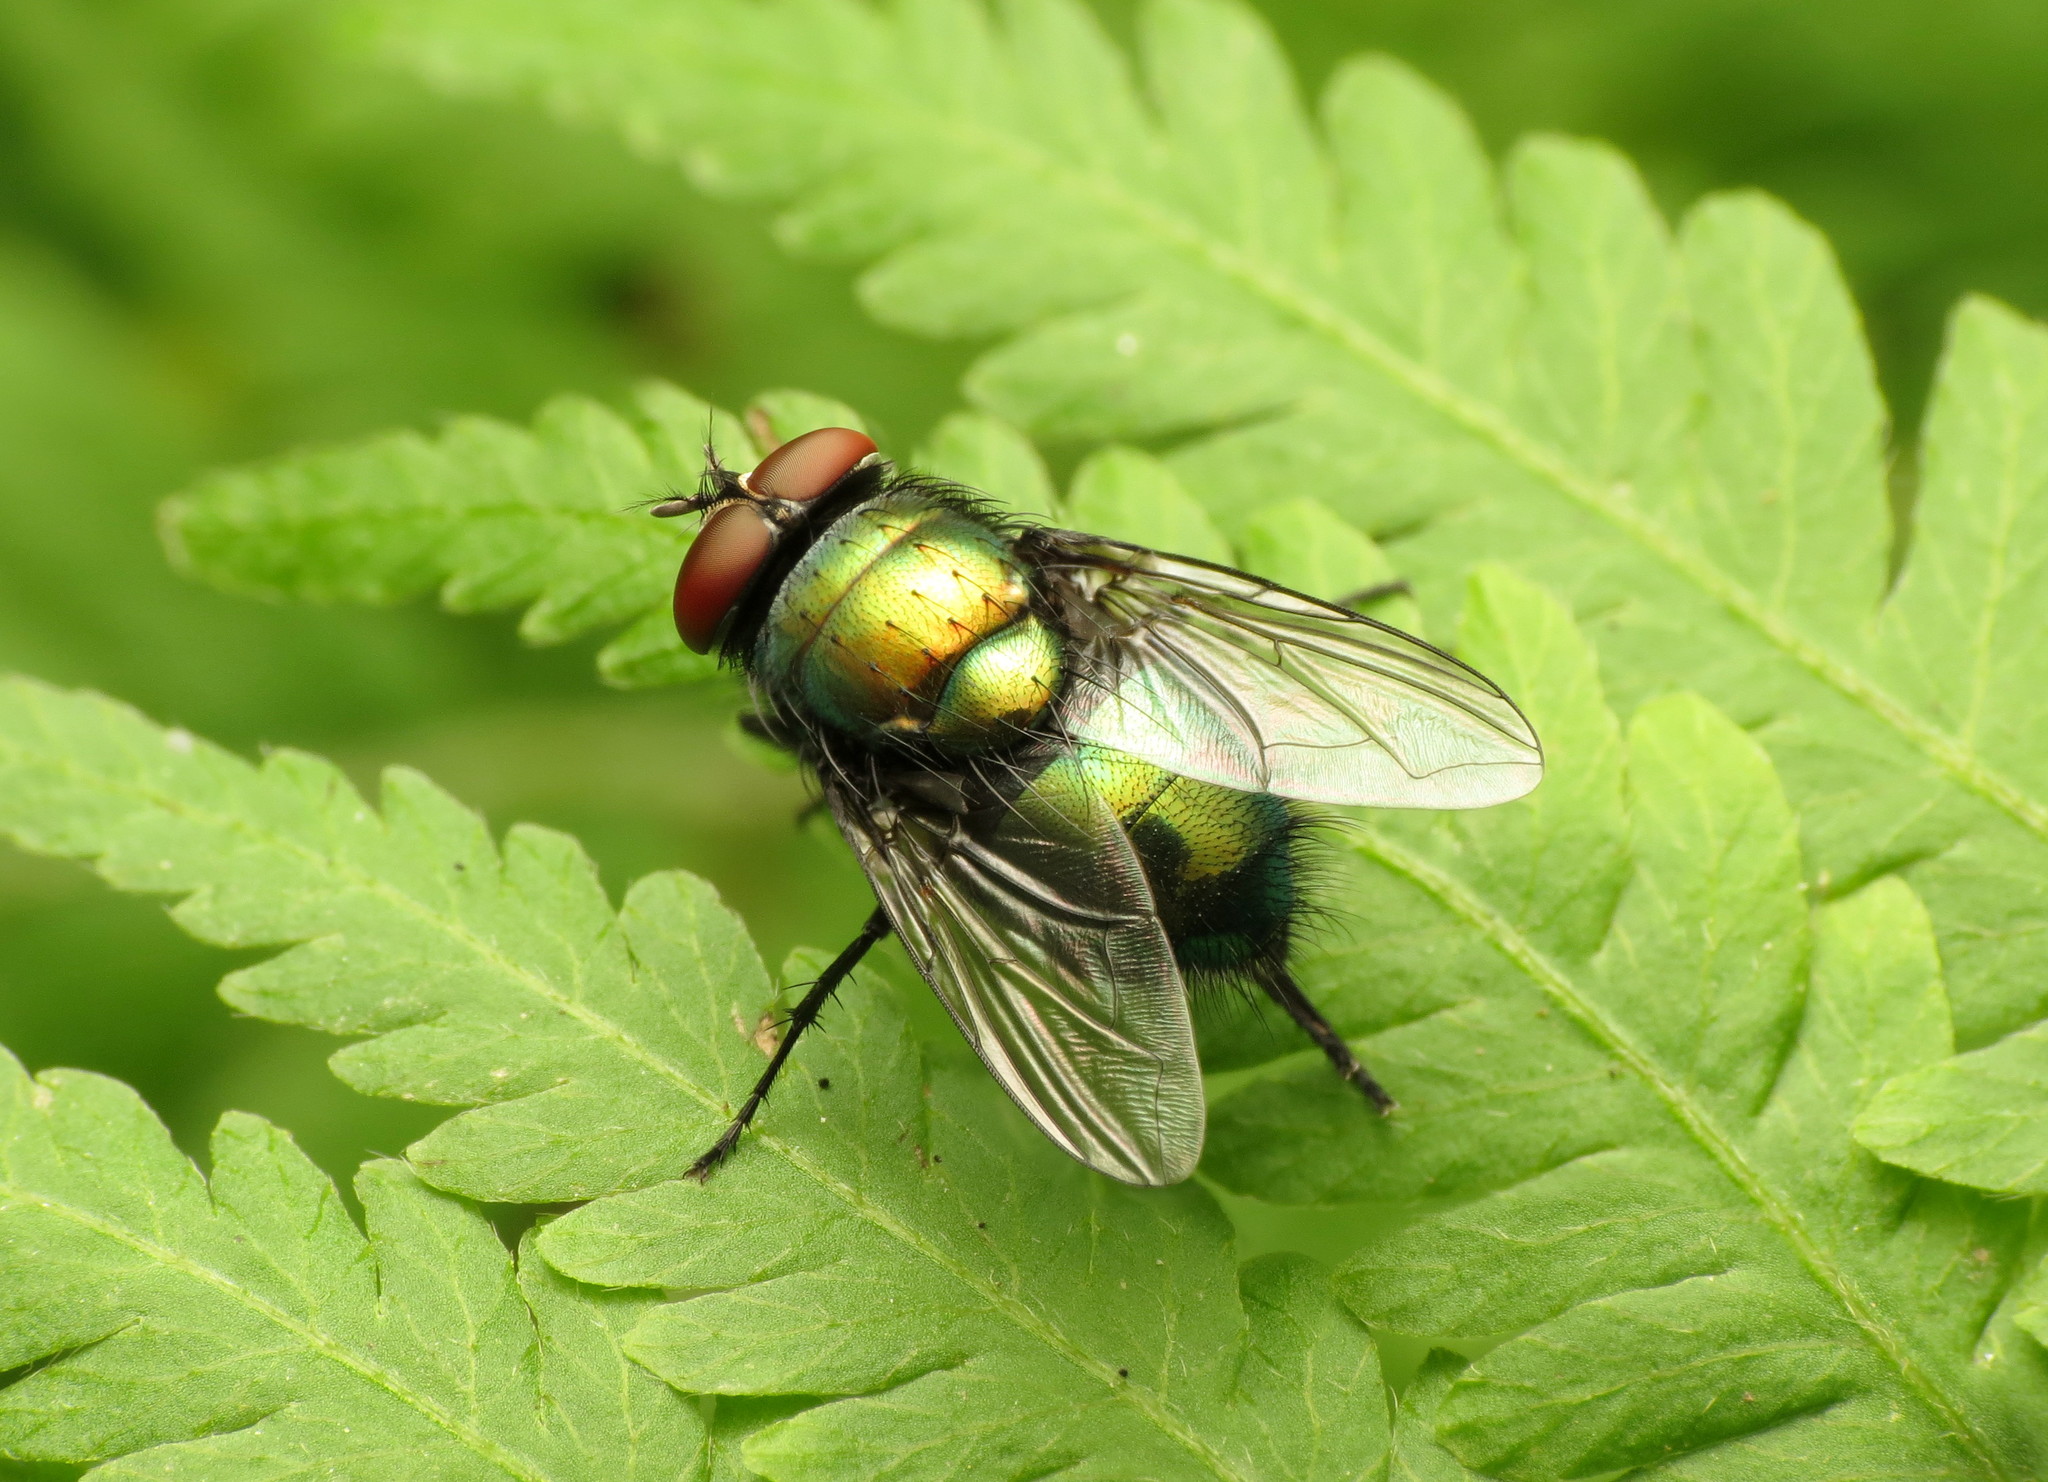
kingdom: Animalia
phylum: Arthropoda
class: Insecta
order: Diptera
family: Calliphoridae
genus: Lucilia
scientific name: Lucilia illustris
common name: Illustrious greenbottle
